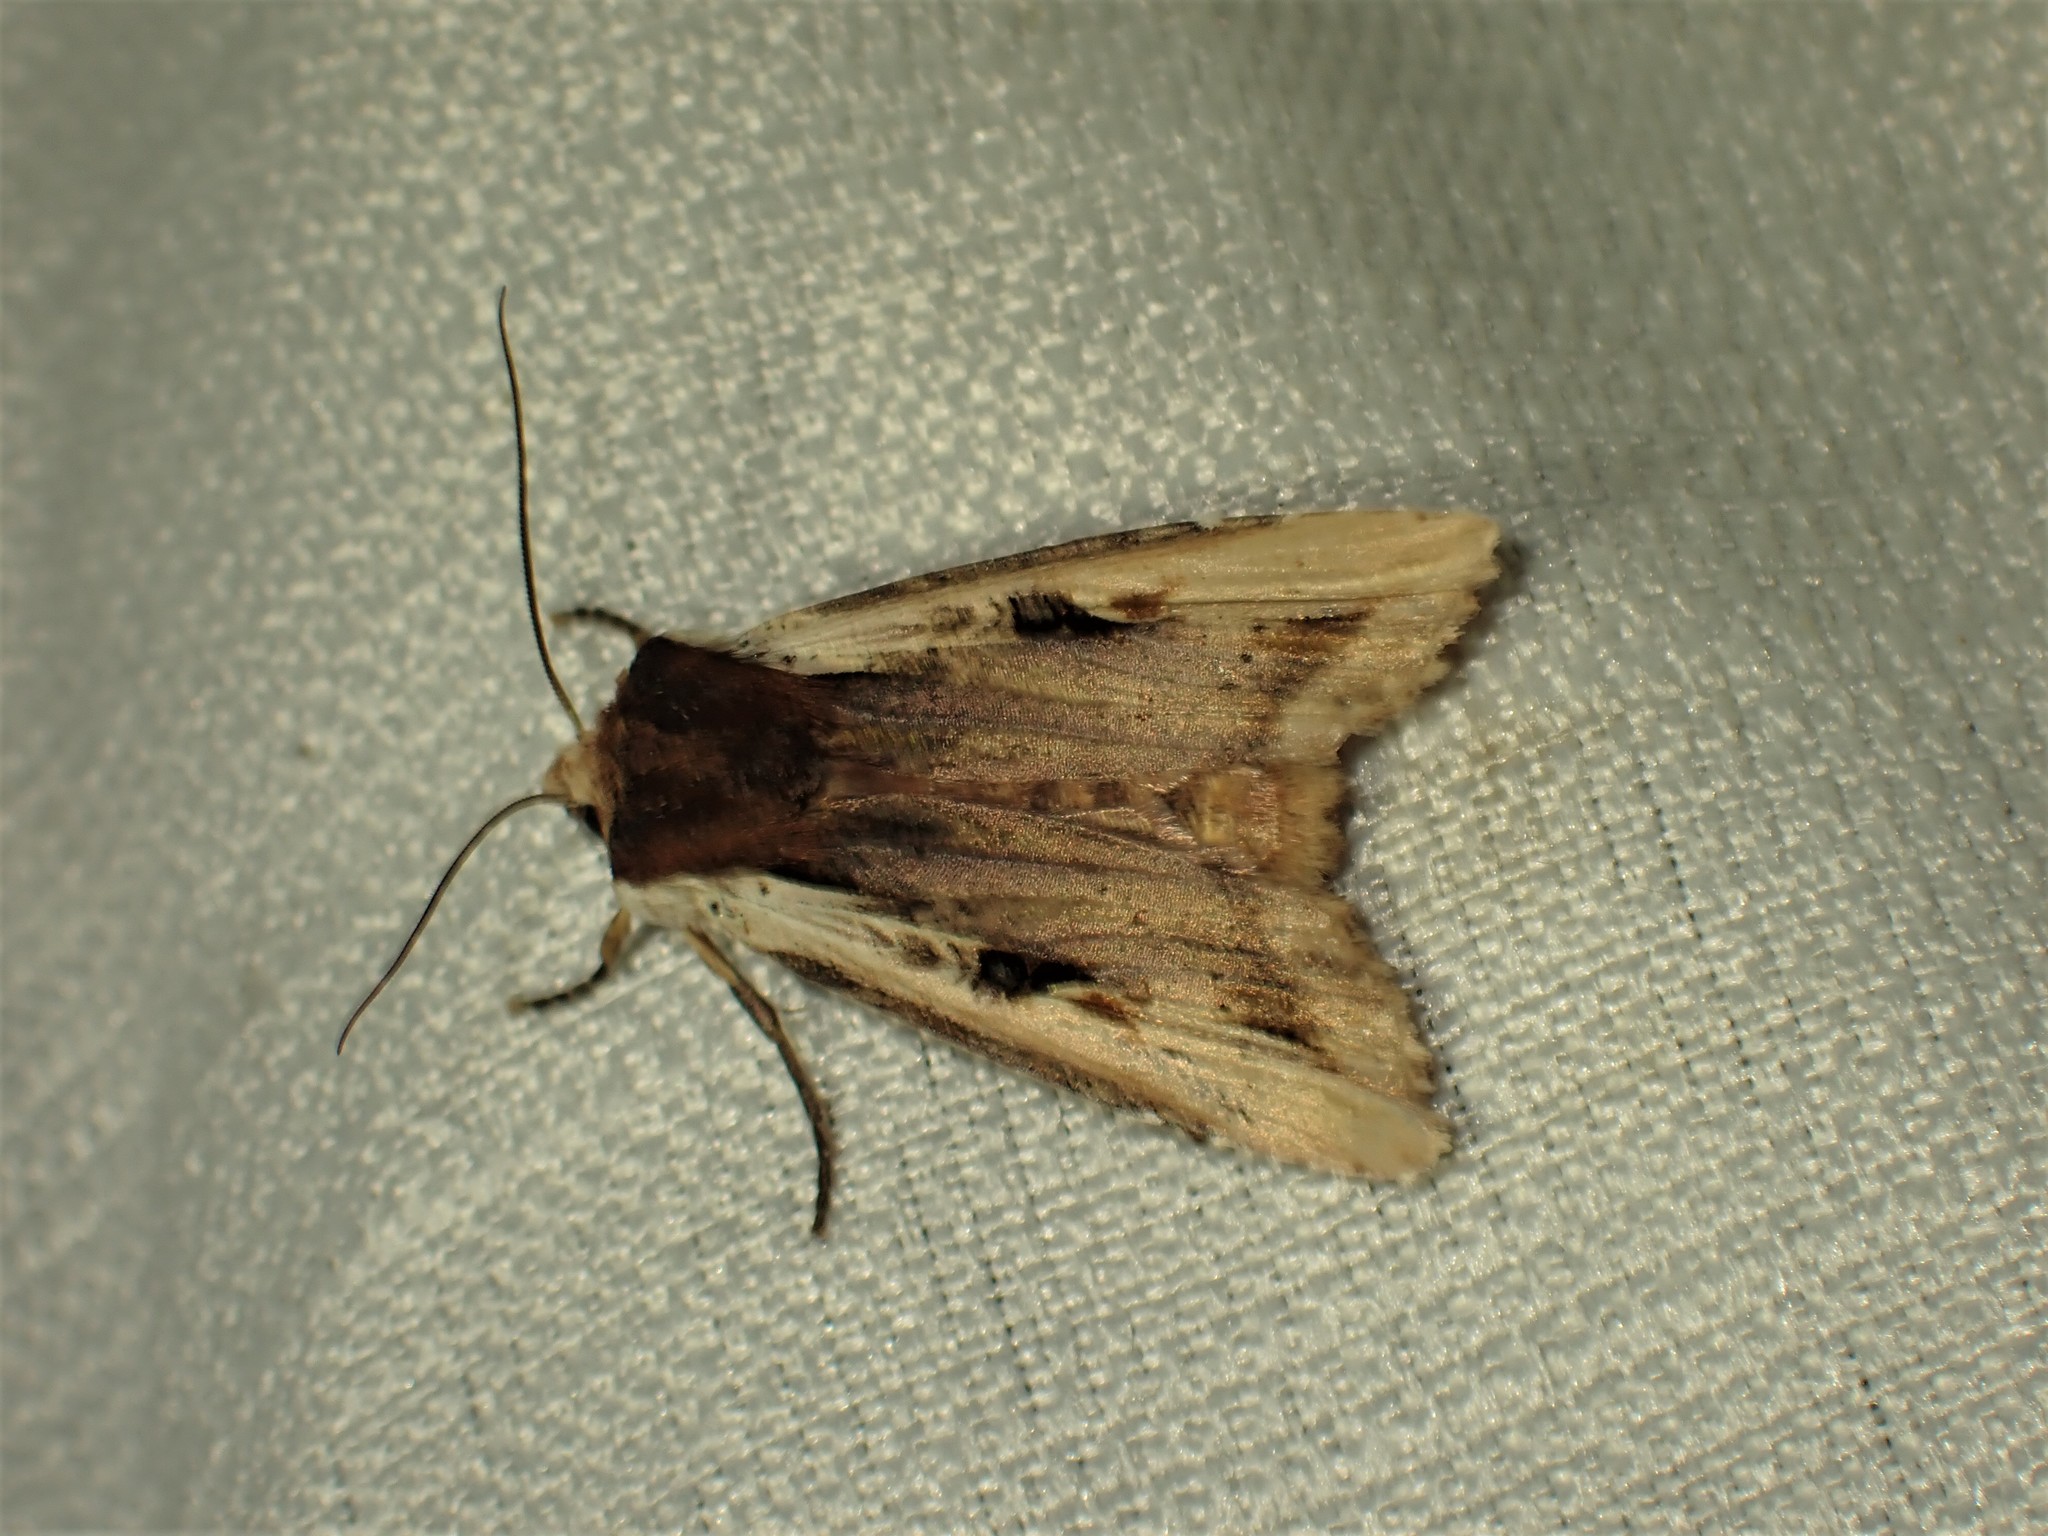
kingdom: Animalia
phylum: Arthropoda
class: Insecta
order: Lepidoptera
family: Noctuidae
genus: Xylena
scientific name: Xylena curvimacula
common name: Dot-and-dash swordgrass moth
